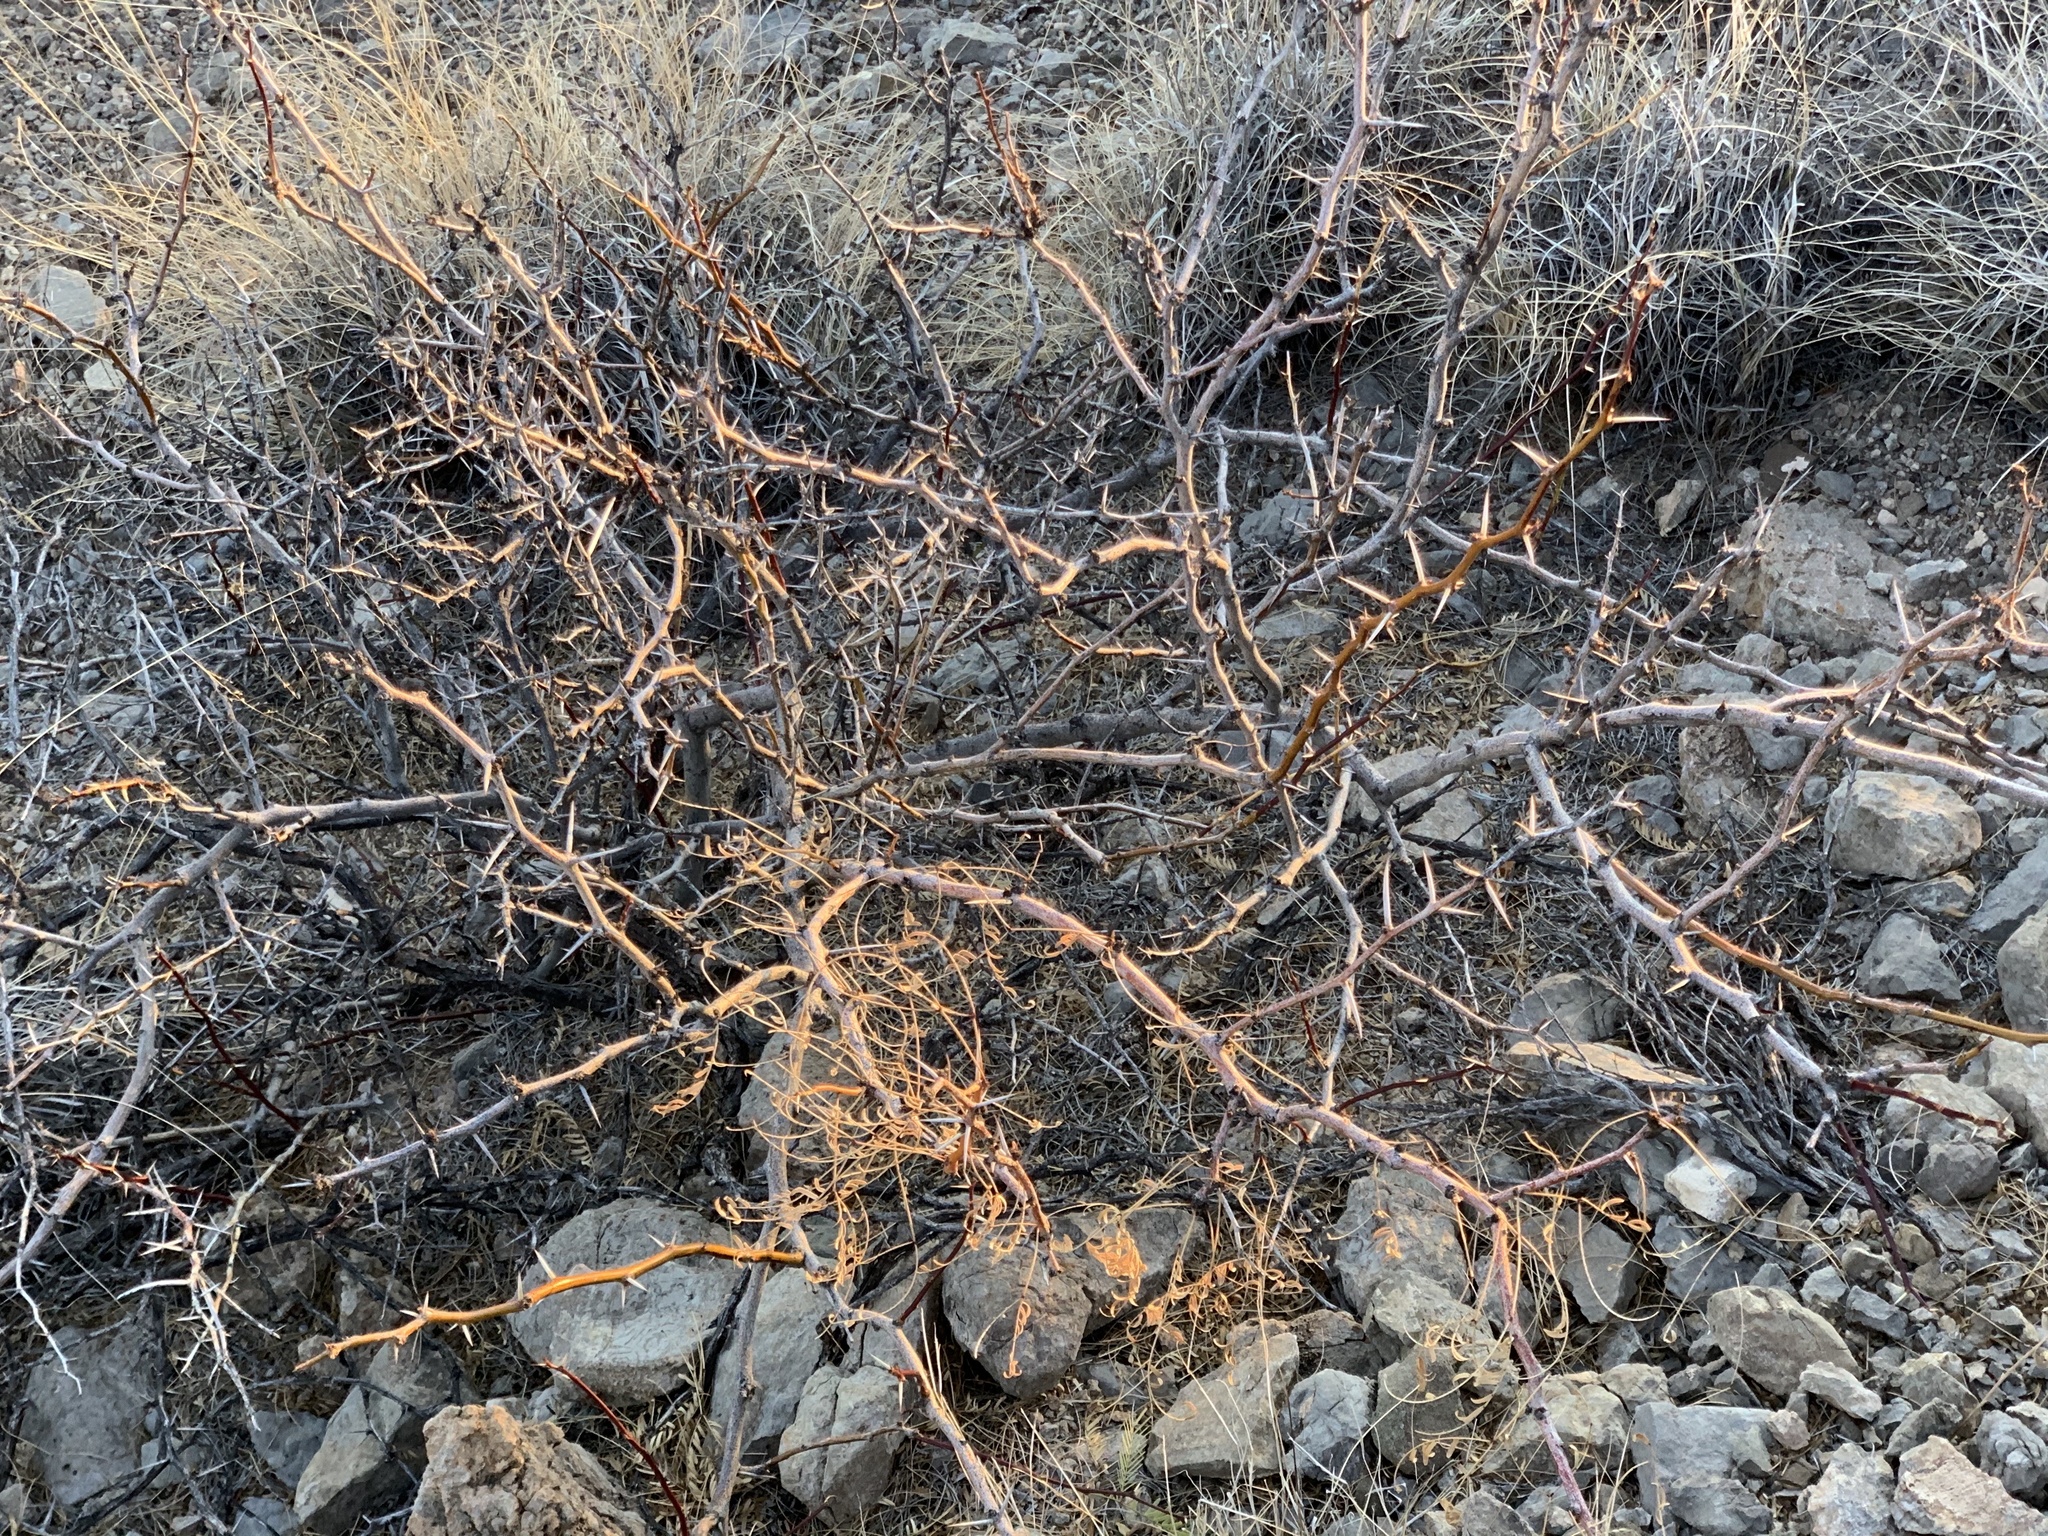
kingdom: Plantae
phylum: Tracheophyta
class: Magnoliopsida
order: Fabales
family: Fabaceae
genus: Prosopis
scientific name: Prosopis glandulosa
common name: Honey mesquite
